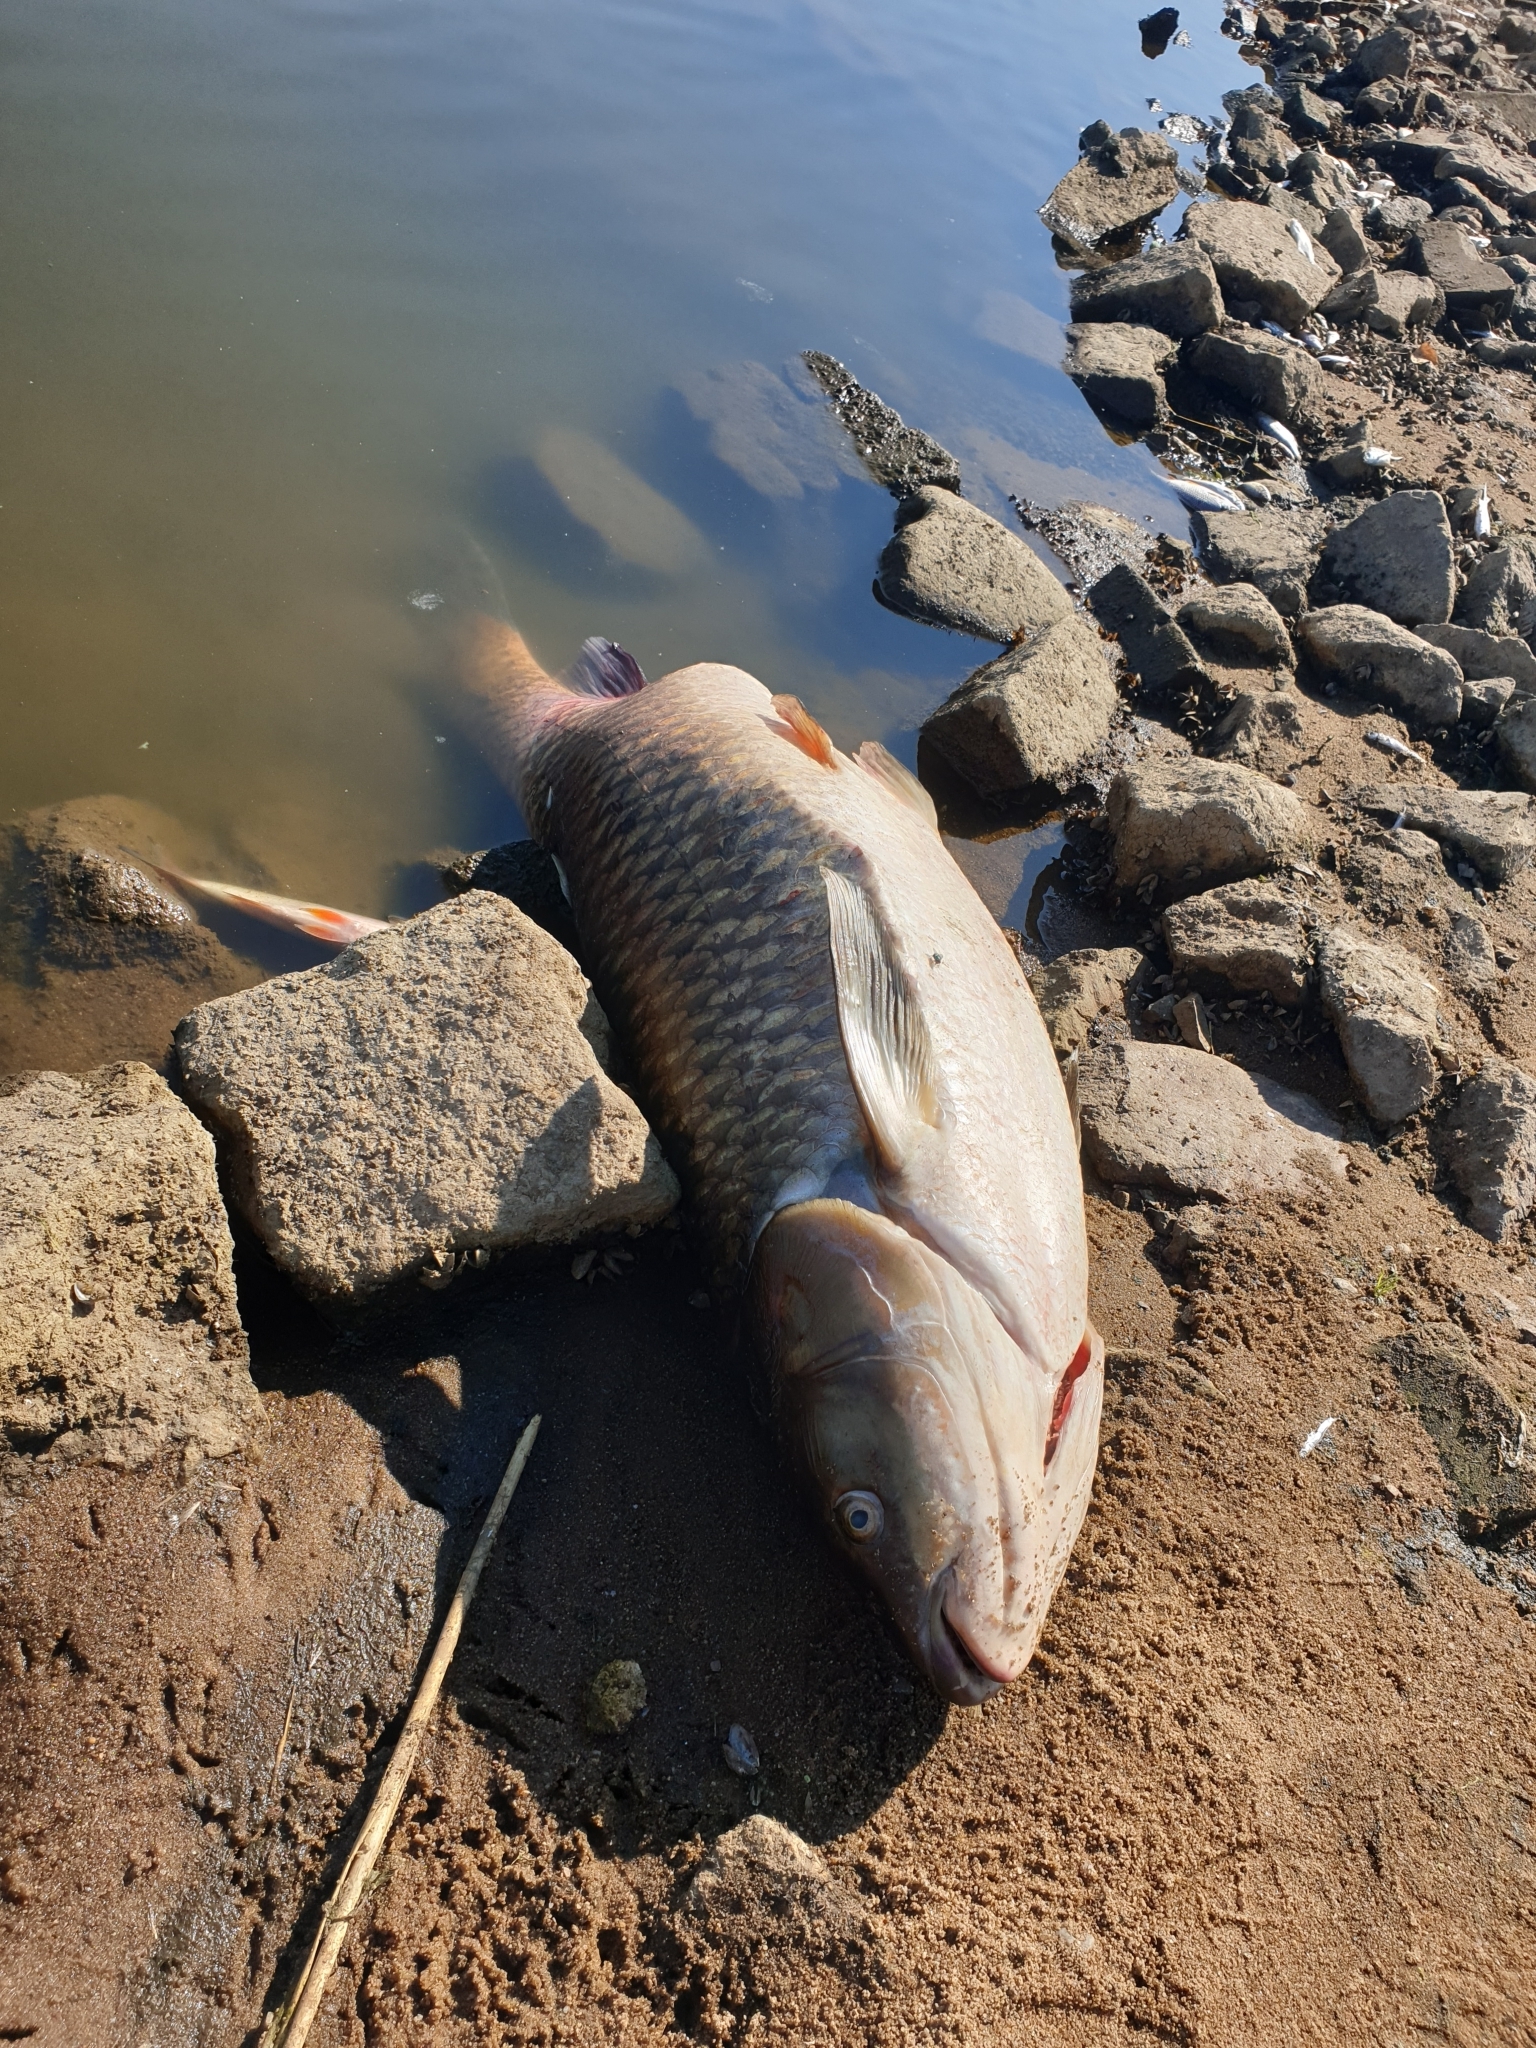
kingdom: Animalia
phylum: Chordata
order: Cypriniformes
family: Cyprinidae
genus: Ctenopharyngodon
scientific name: Ctenopharyngodon idella
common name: Grass carp
